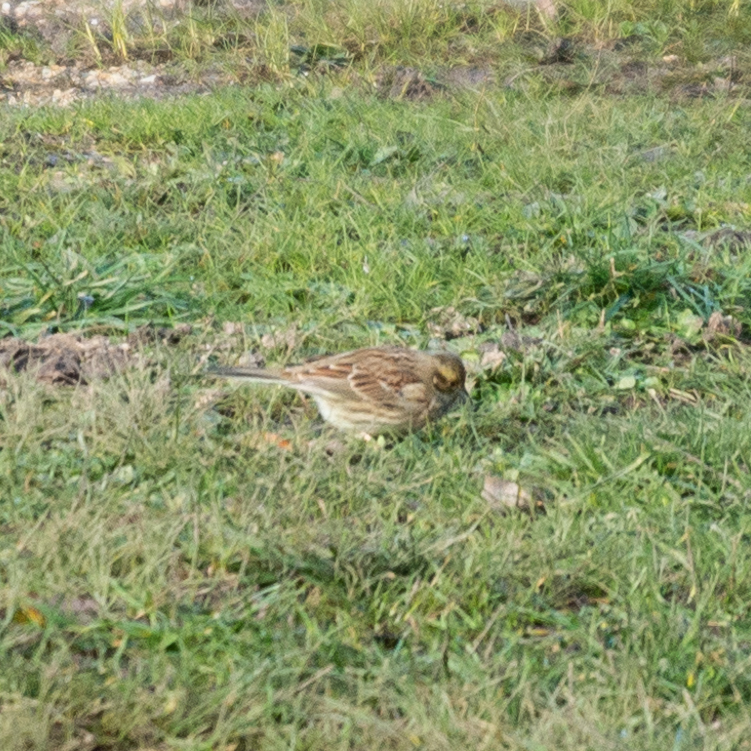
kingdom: Animalia
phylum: Chordata
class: Aves
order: Passeriformes
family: Emberizidae
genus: Emberiza
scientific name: Emberiza cirlus
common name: Cirl bunting
